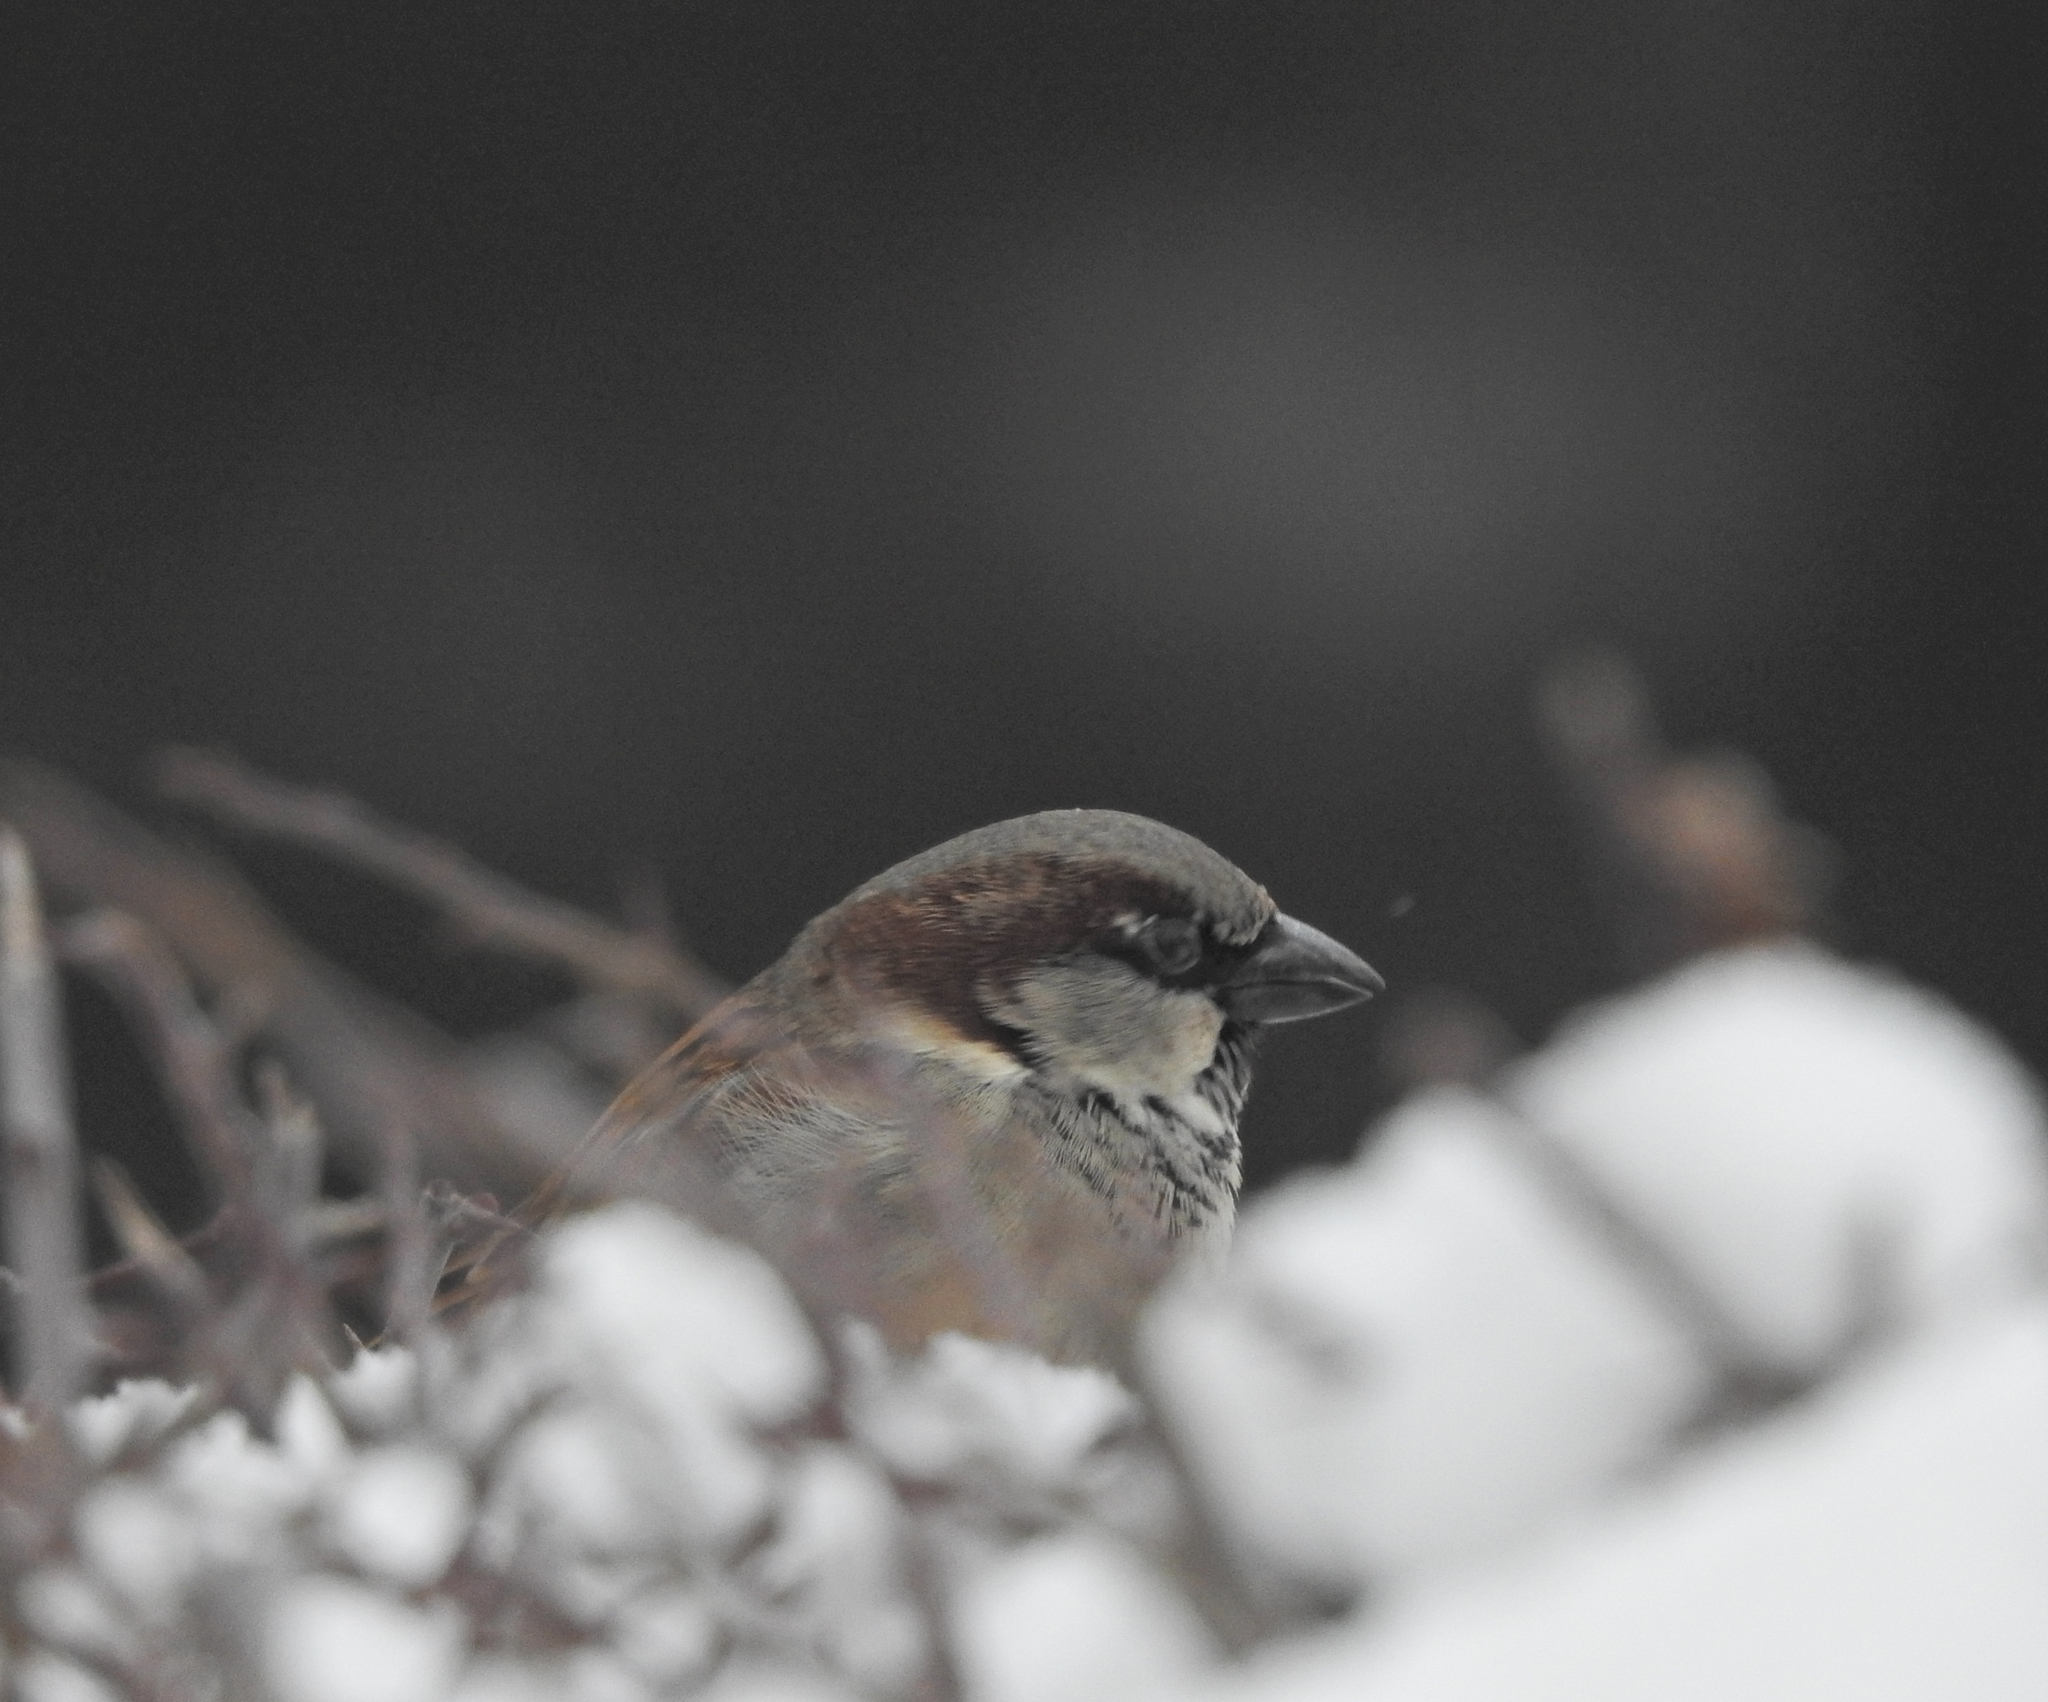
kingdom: Animalia
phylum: Chordata
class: Aves
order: Passeriformes
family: Passeridae
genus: Passer
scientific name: Passer domesticus
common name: House sparrow
